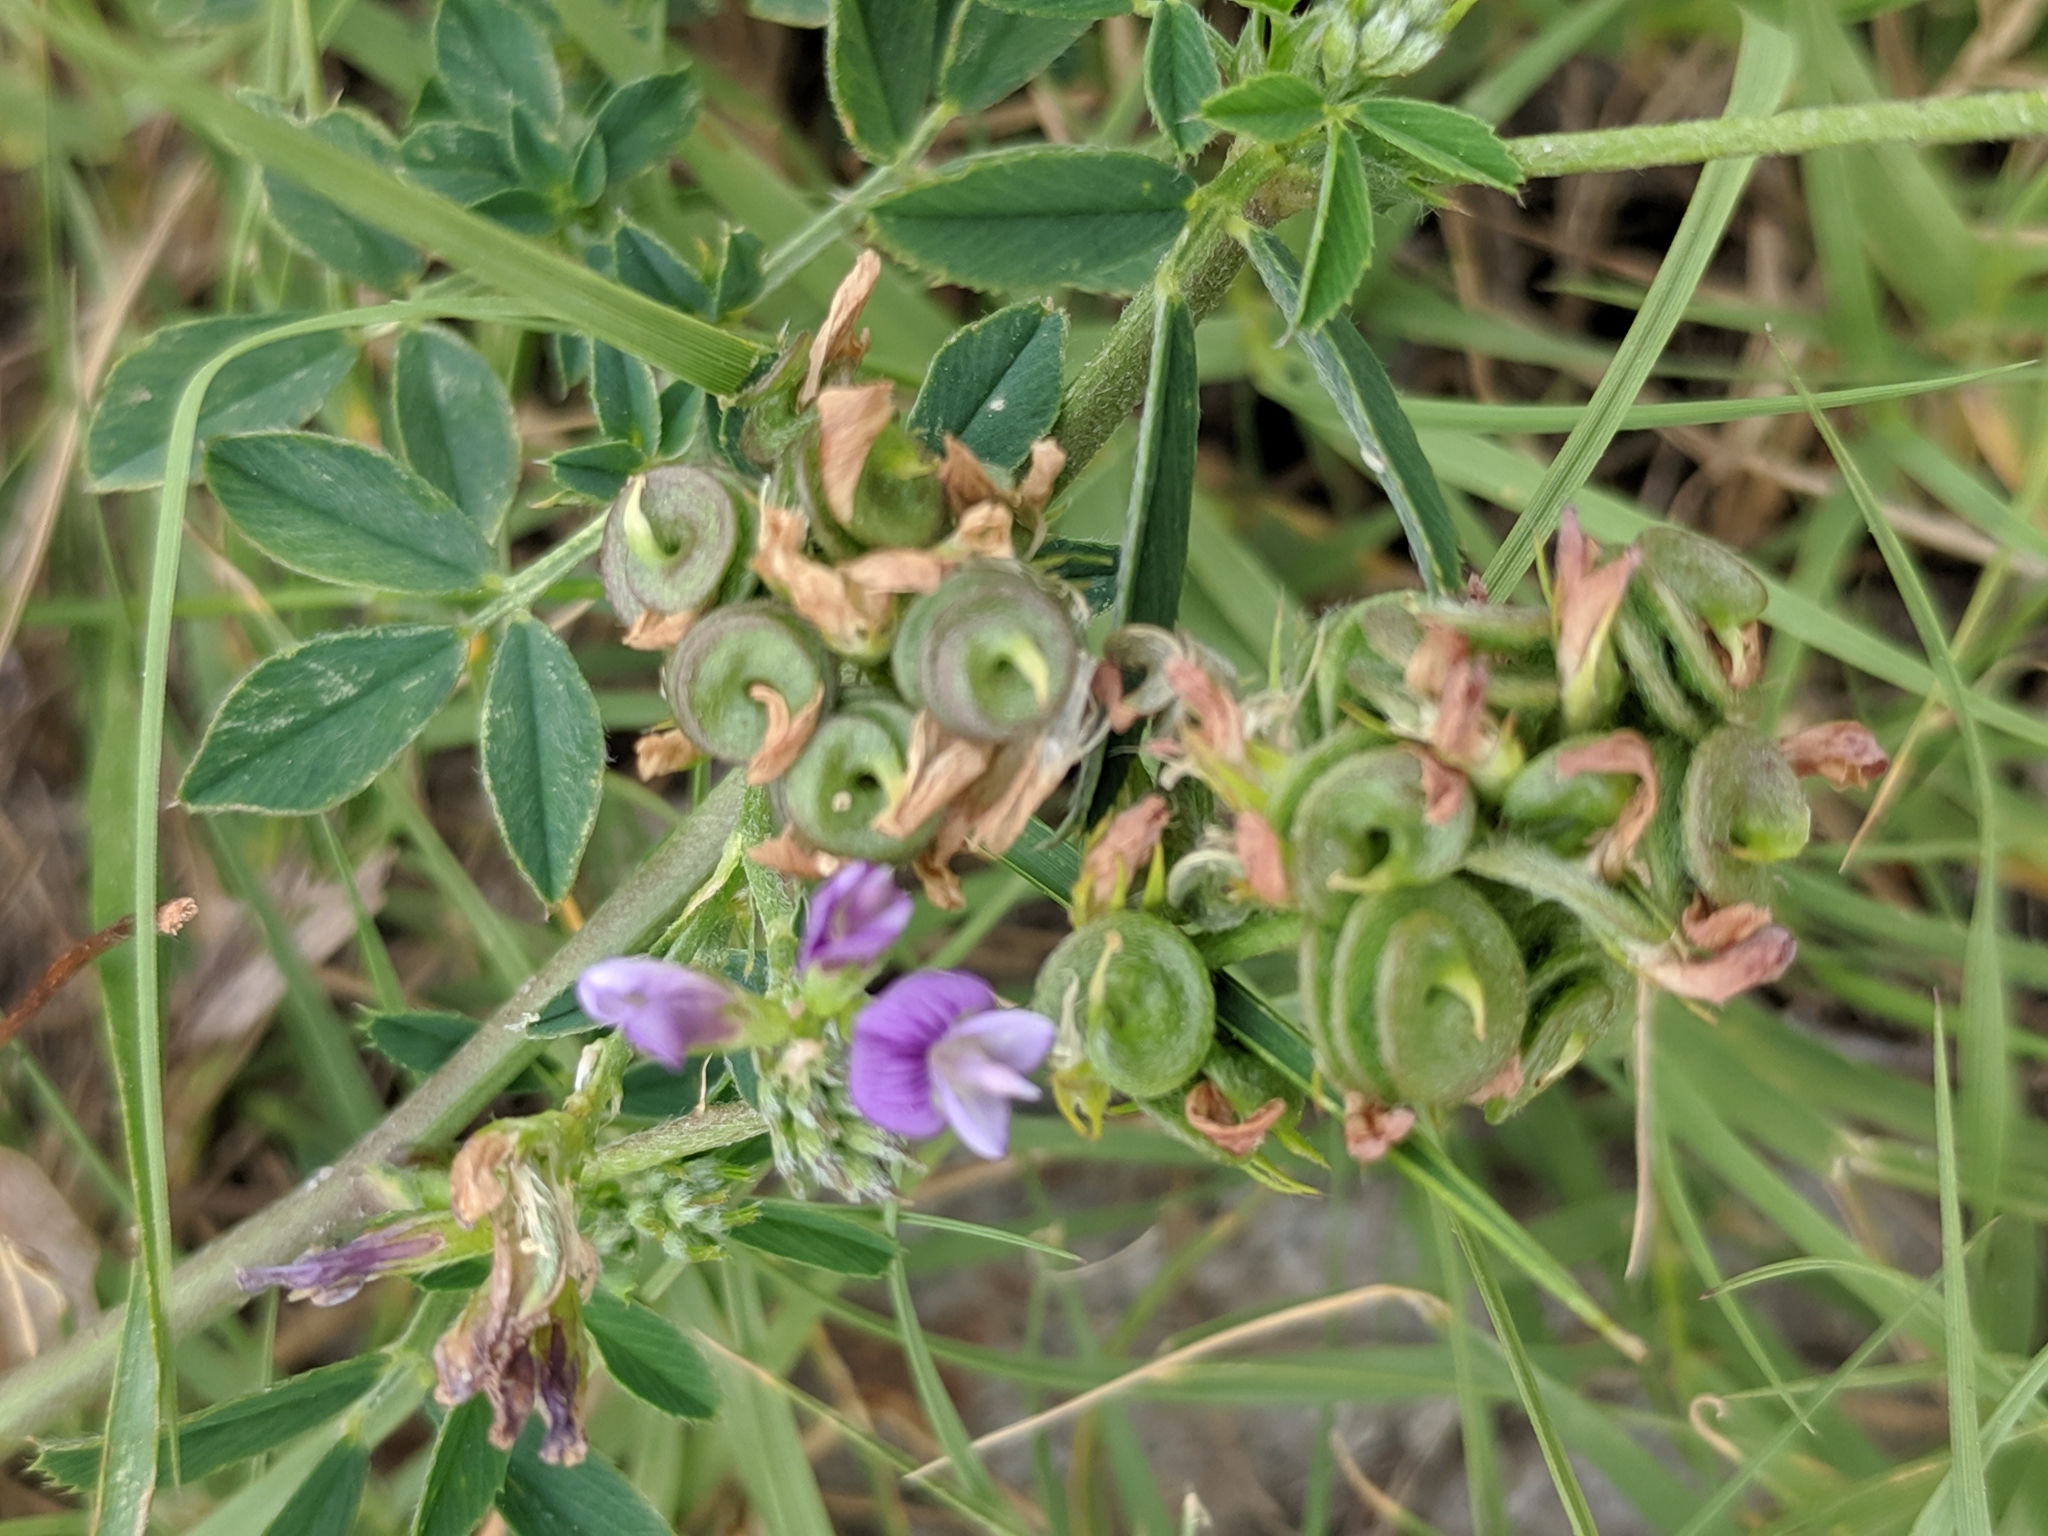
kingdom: Plantae
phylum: Tracheophyta
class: Magnoliopsida
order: Fabales
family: Fabaceae
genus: Medicago
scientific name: Medicago sativa
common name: Alfalfa
